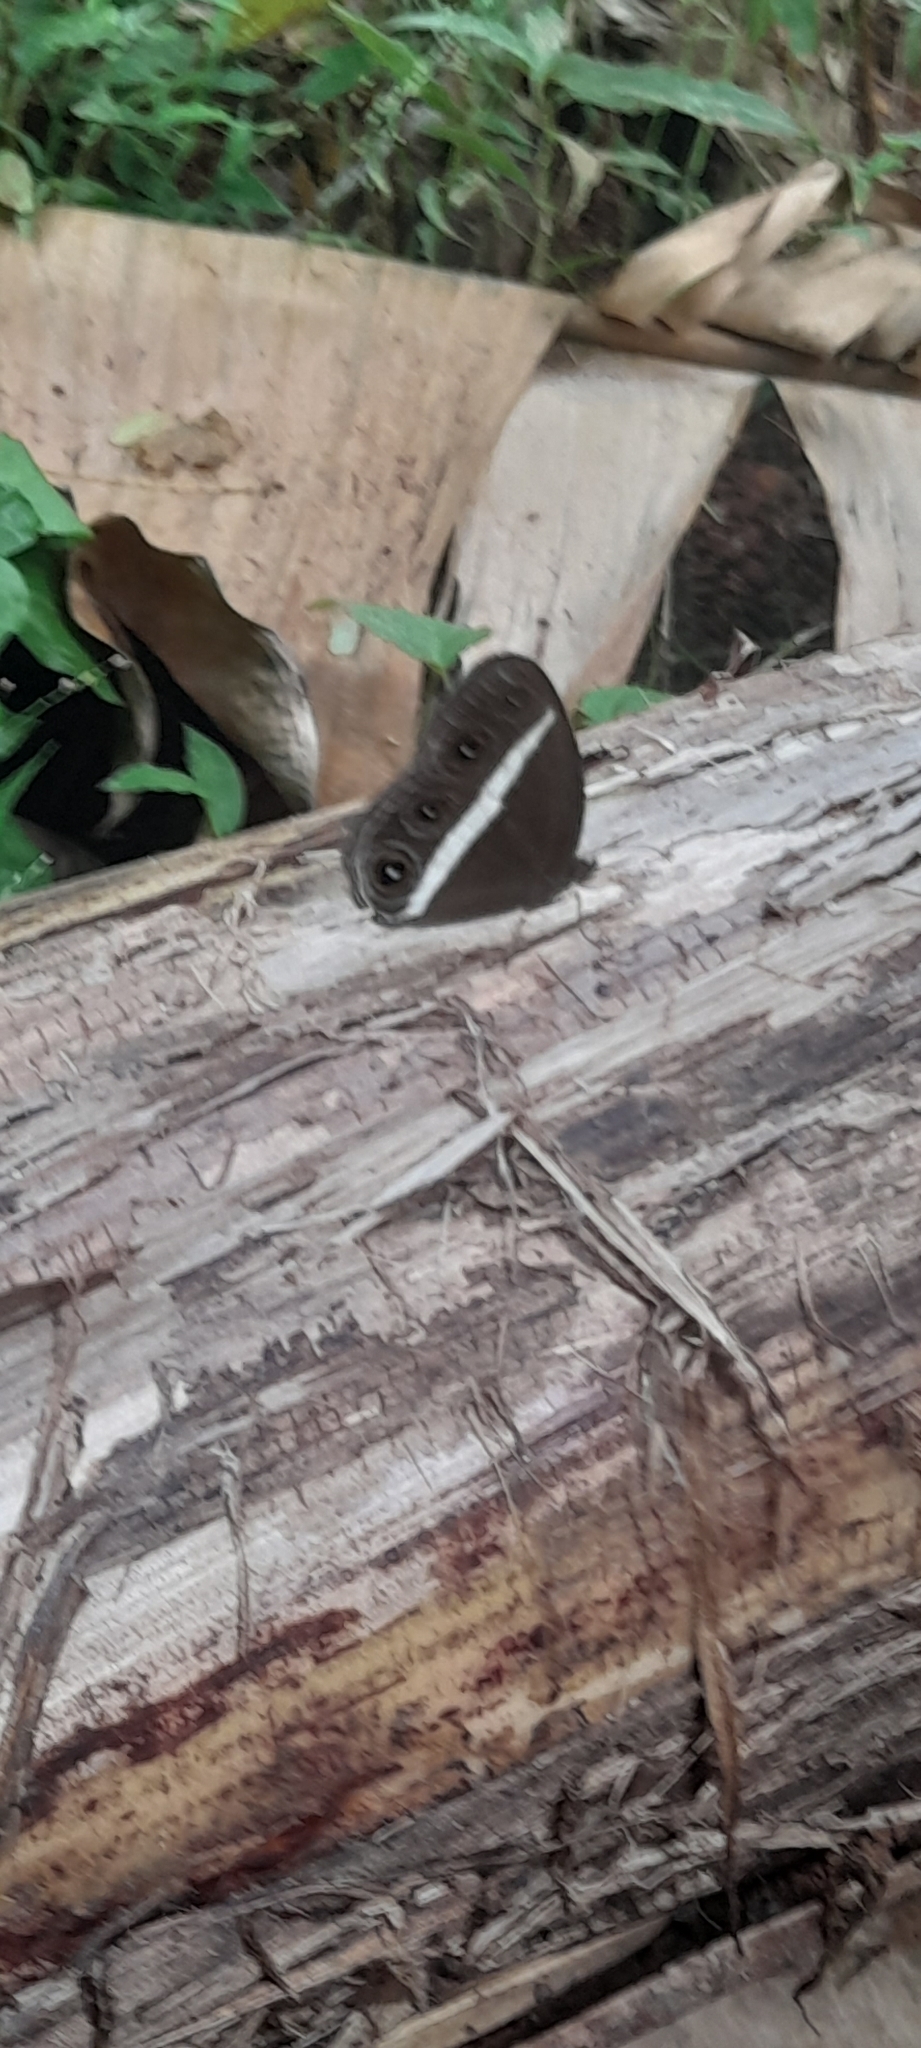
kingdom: Animalia
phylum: Arthropoda
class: Insecta
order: Lepidoptera
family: Nymphalidae
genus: Orsotriaena
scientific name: Orsotriaena medus
